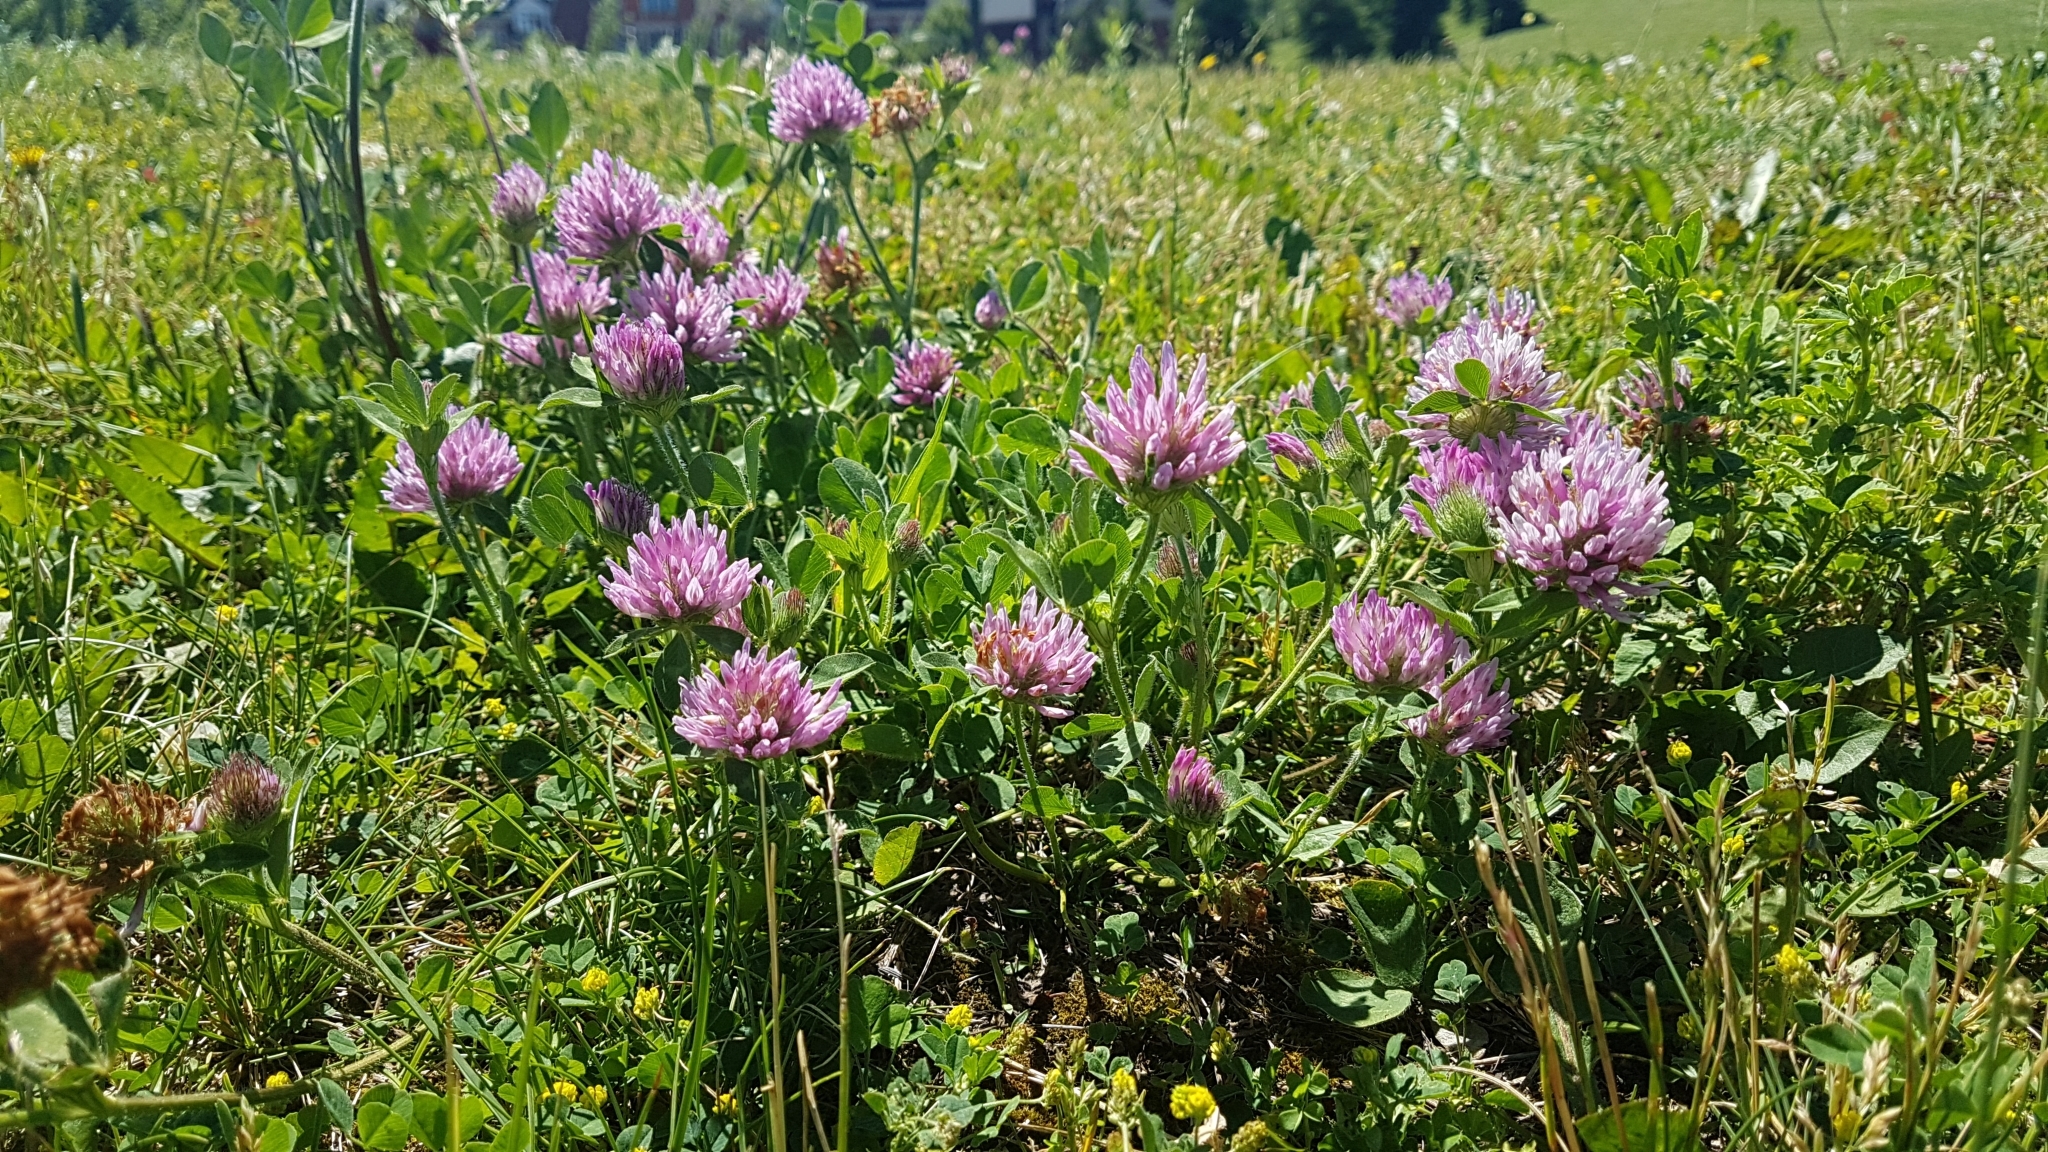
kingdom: Plantae
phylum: Tracheophyta
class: Magnoliopsida
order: Fabales
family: Fabaceae
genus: Trifolium
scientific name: Trifolium pratense
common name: Red clover
